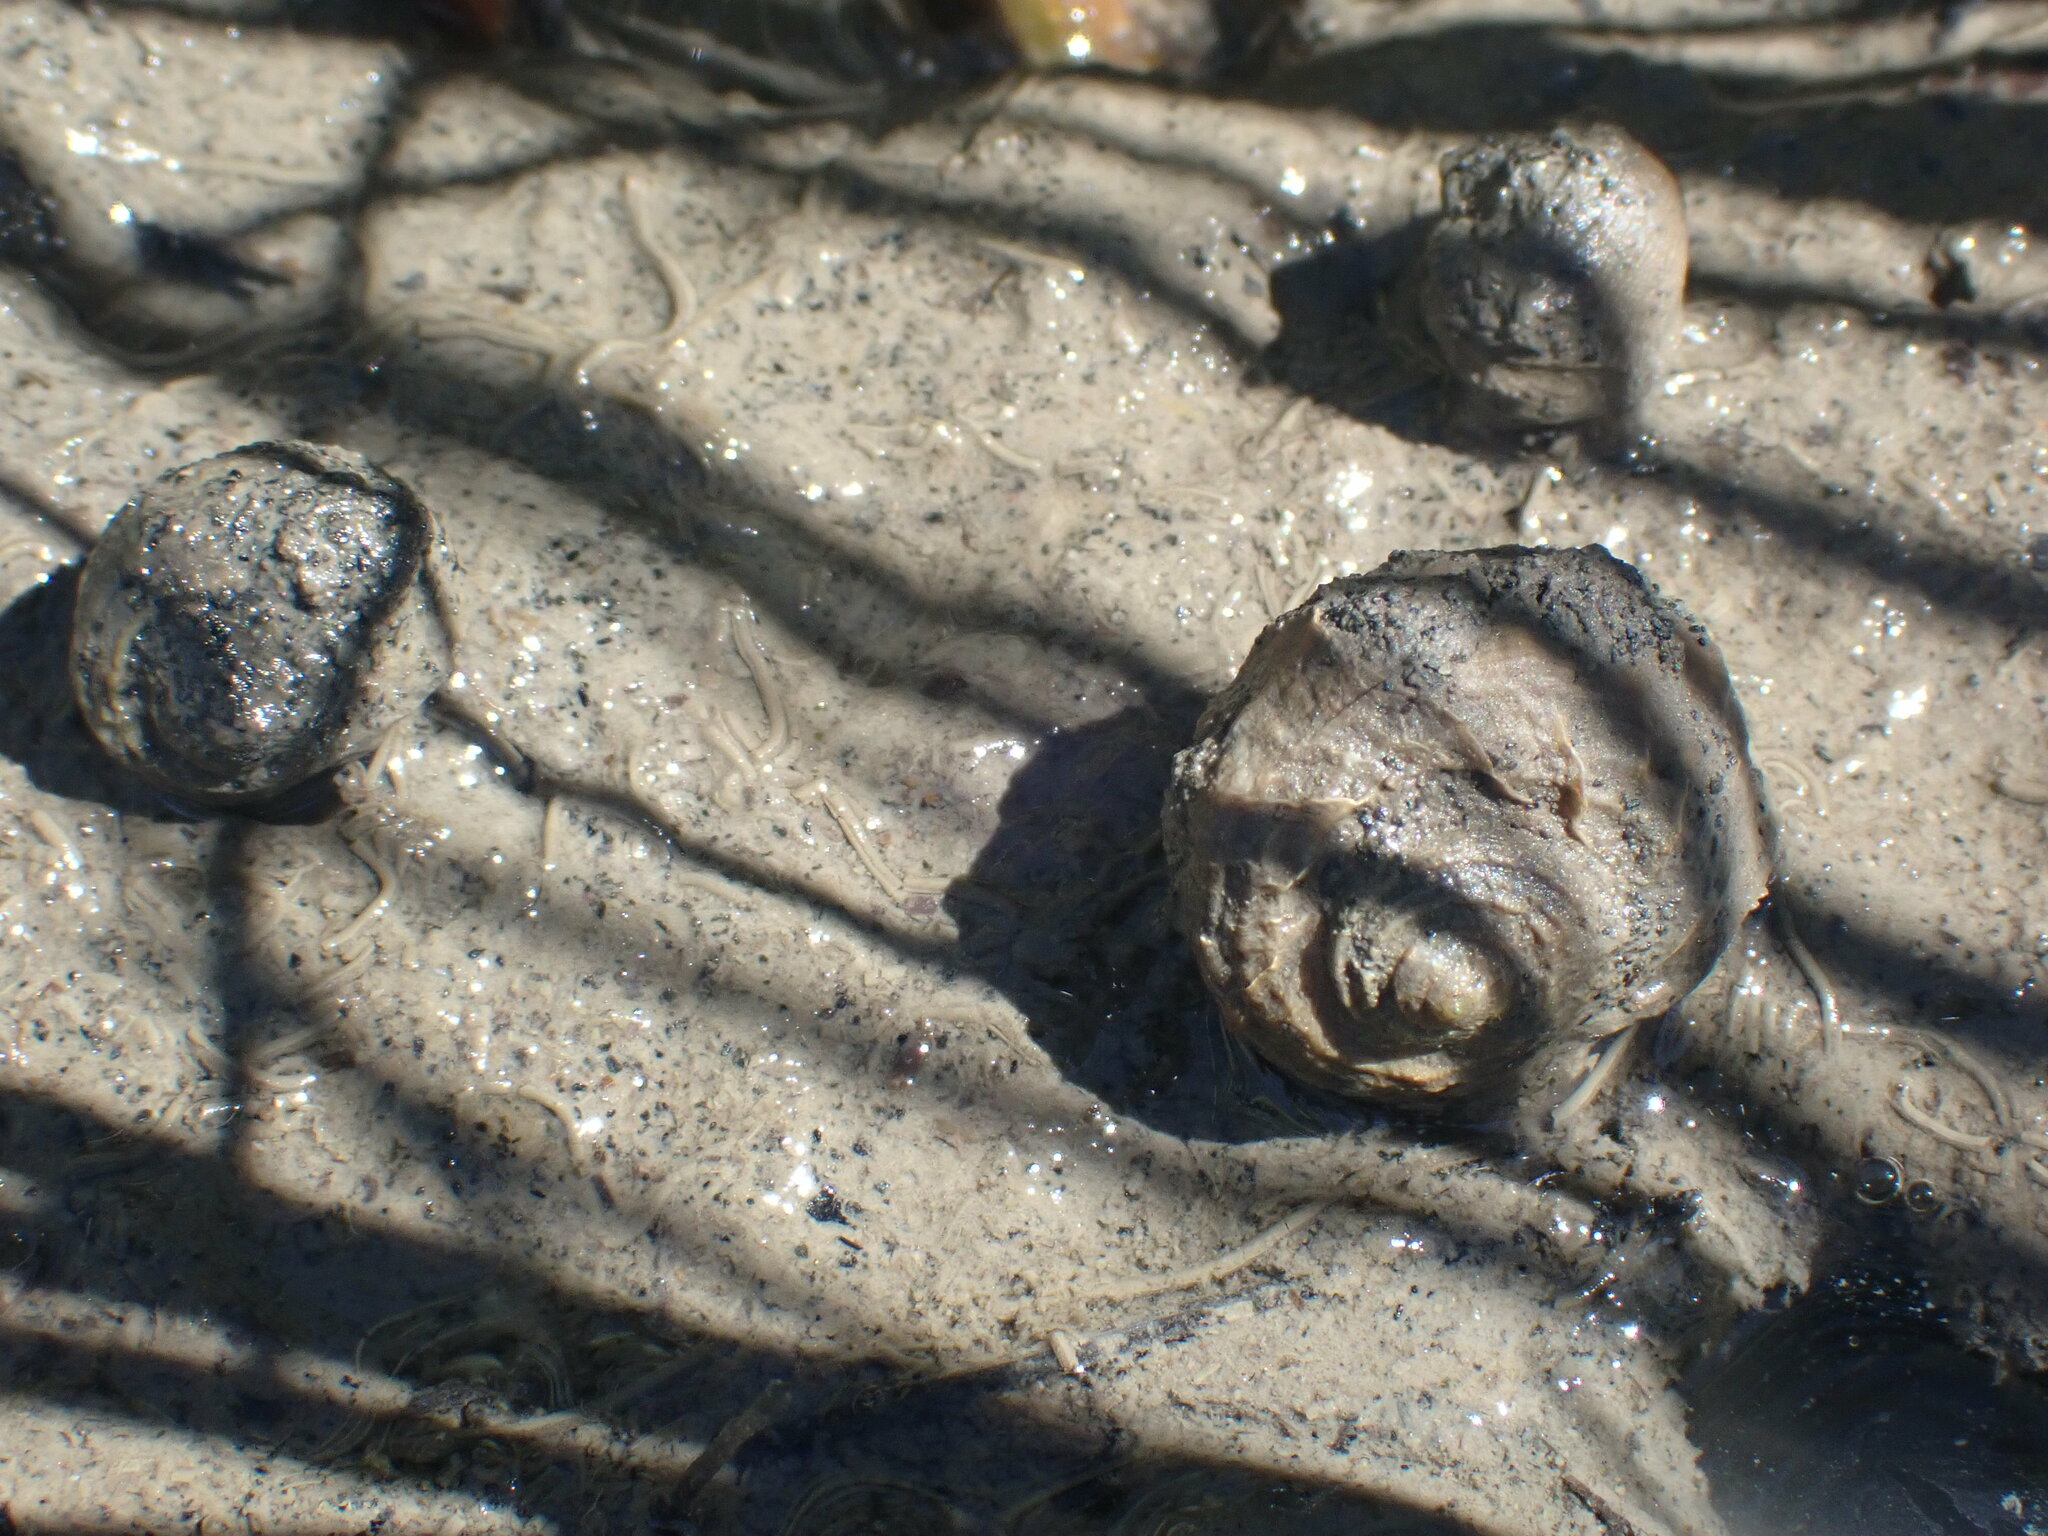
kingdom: Animalia
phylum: Mollusca
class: Gastropoda
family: Amphibolidae
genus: Amphibola
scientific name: Amphibola crenata
